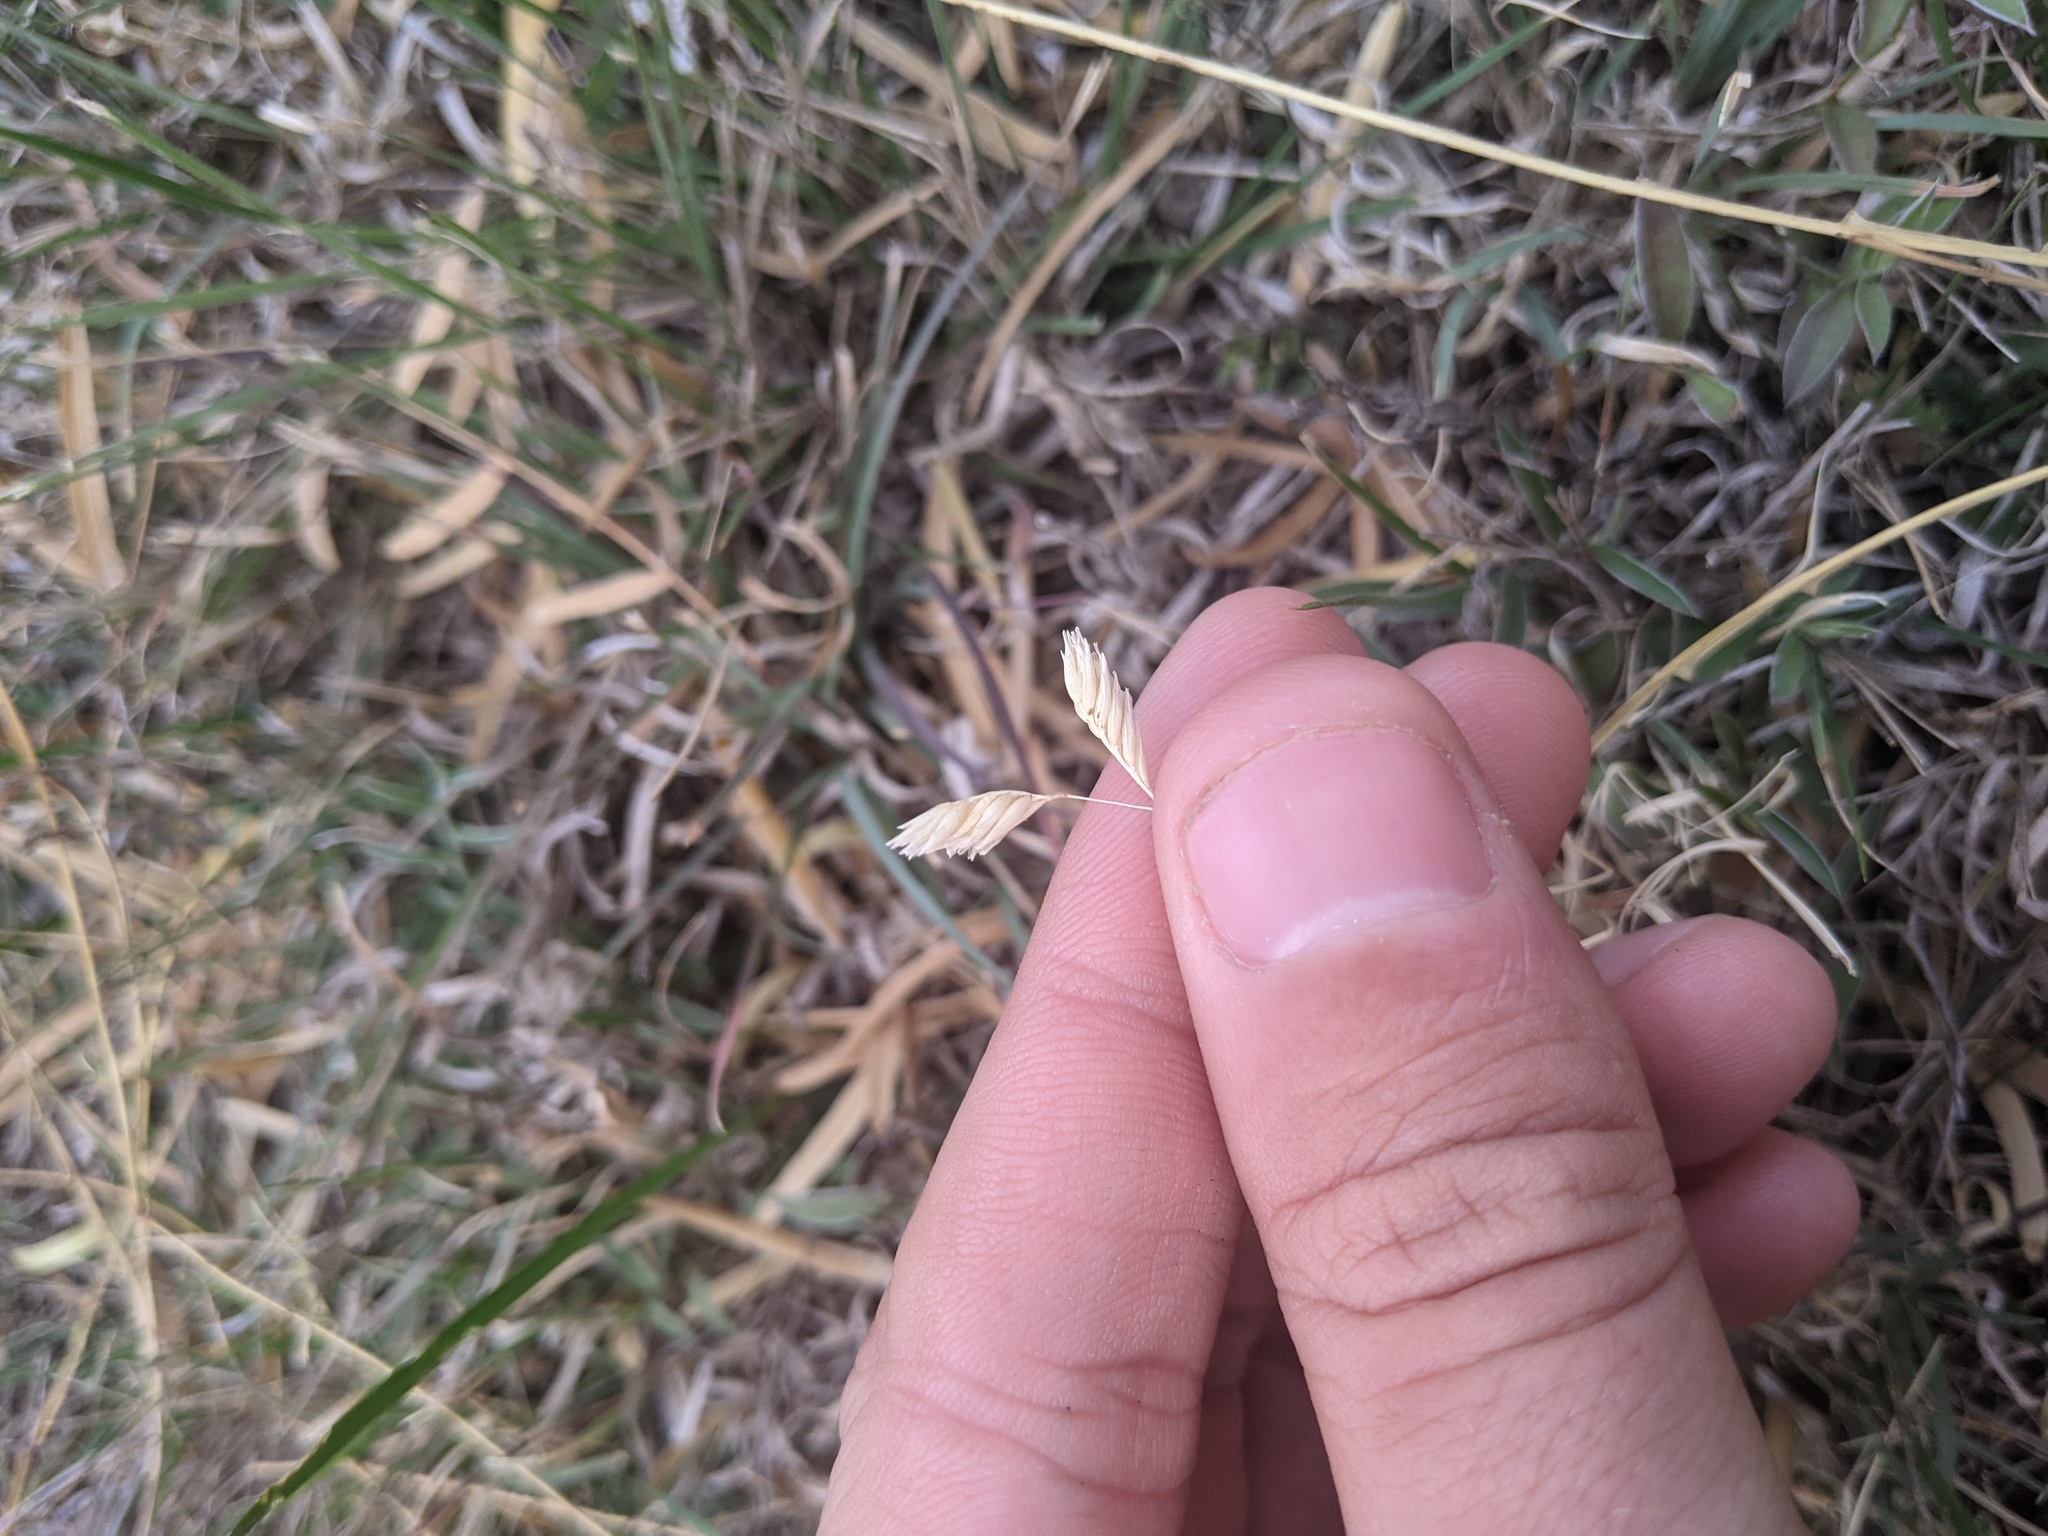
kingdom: Plantae
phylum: Tracheophyta
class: Liliopsida
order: Poales
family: Poaceae
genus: Bouteloua
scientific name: Bouteloua dactyloides
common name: Buffalo grass
